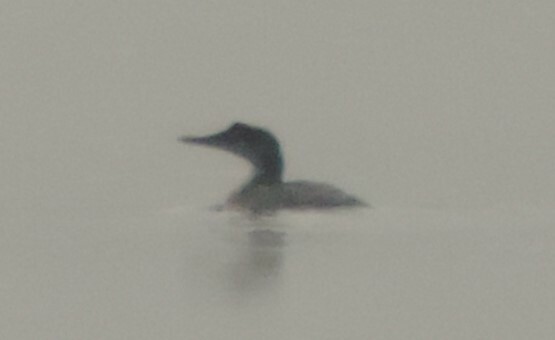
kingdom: Animalia
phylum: Chordata
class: Aves
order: Gaviiformes
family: Gaviidae
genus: Gavia
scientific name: Gavia immer
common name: Common loon
